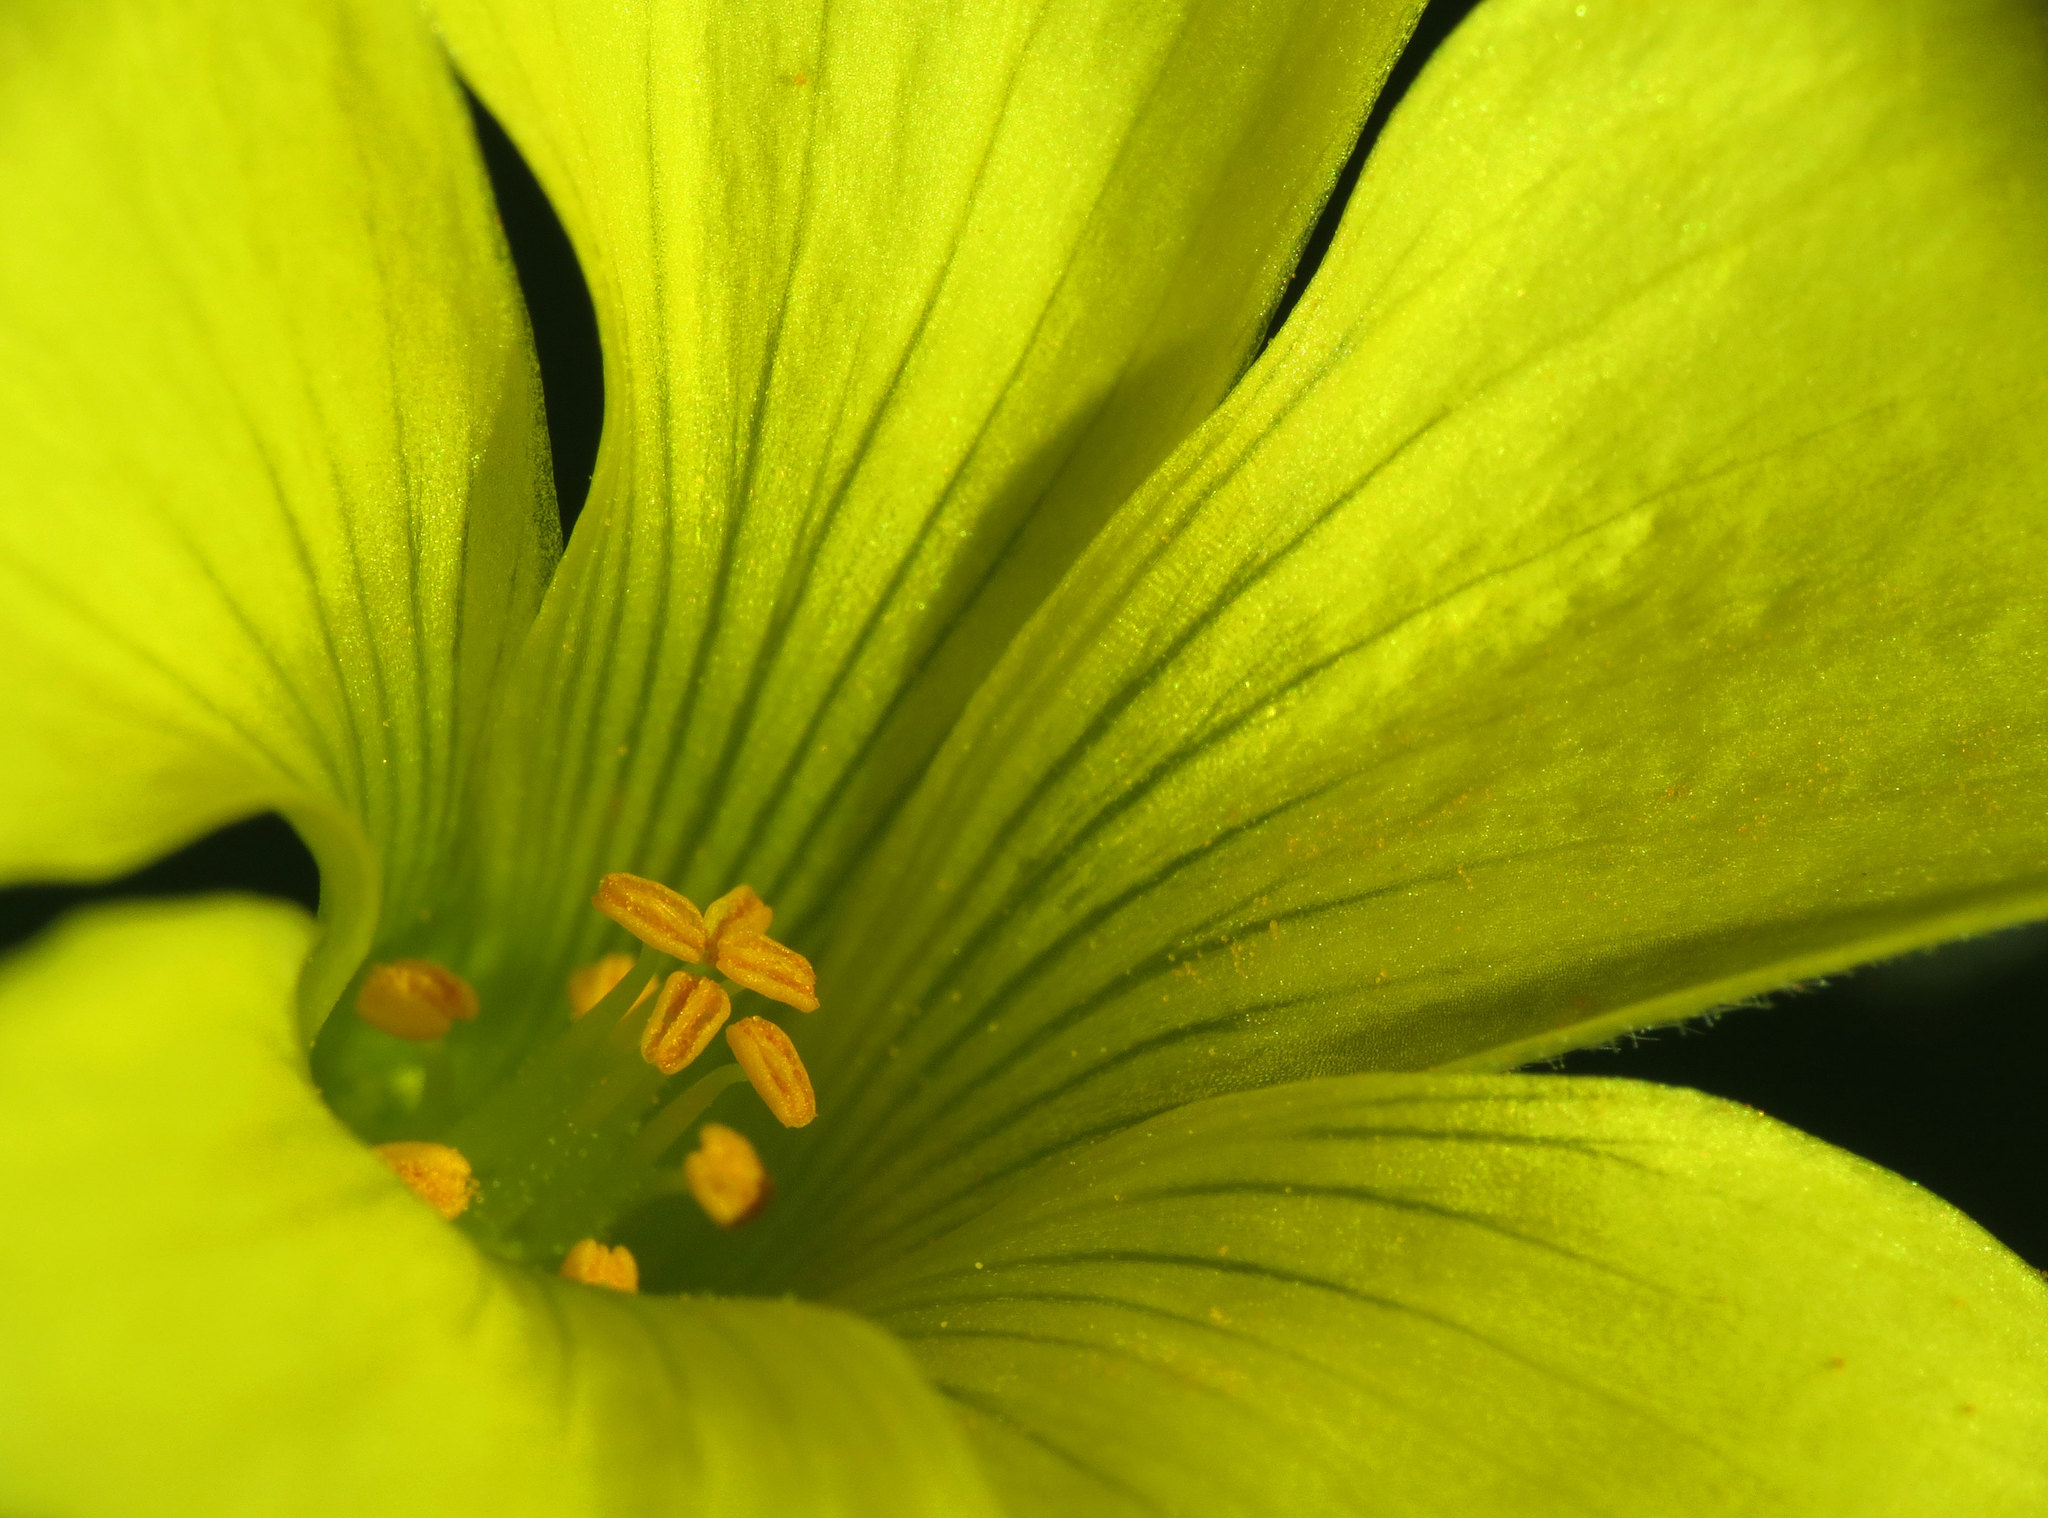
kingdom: Plantae
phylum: Tracheophyta
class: Magnoliopsida
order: Oxalidales
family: Oxalidaceae
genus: Oxalis
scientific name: Oxalis pes-caprae
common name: Bermuda-buttercup
